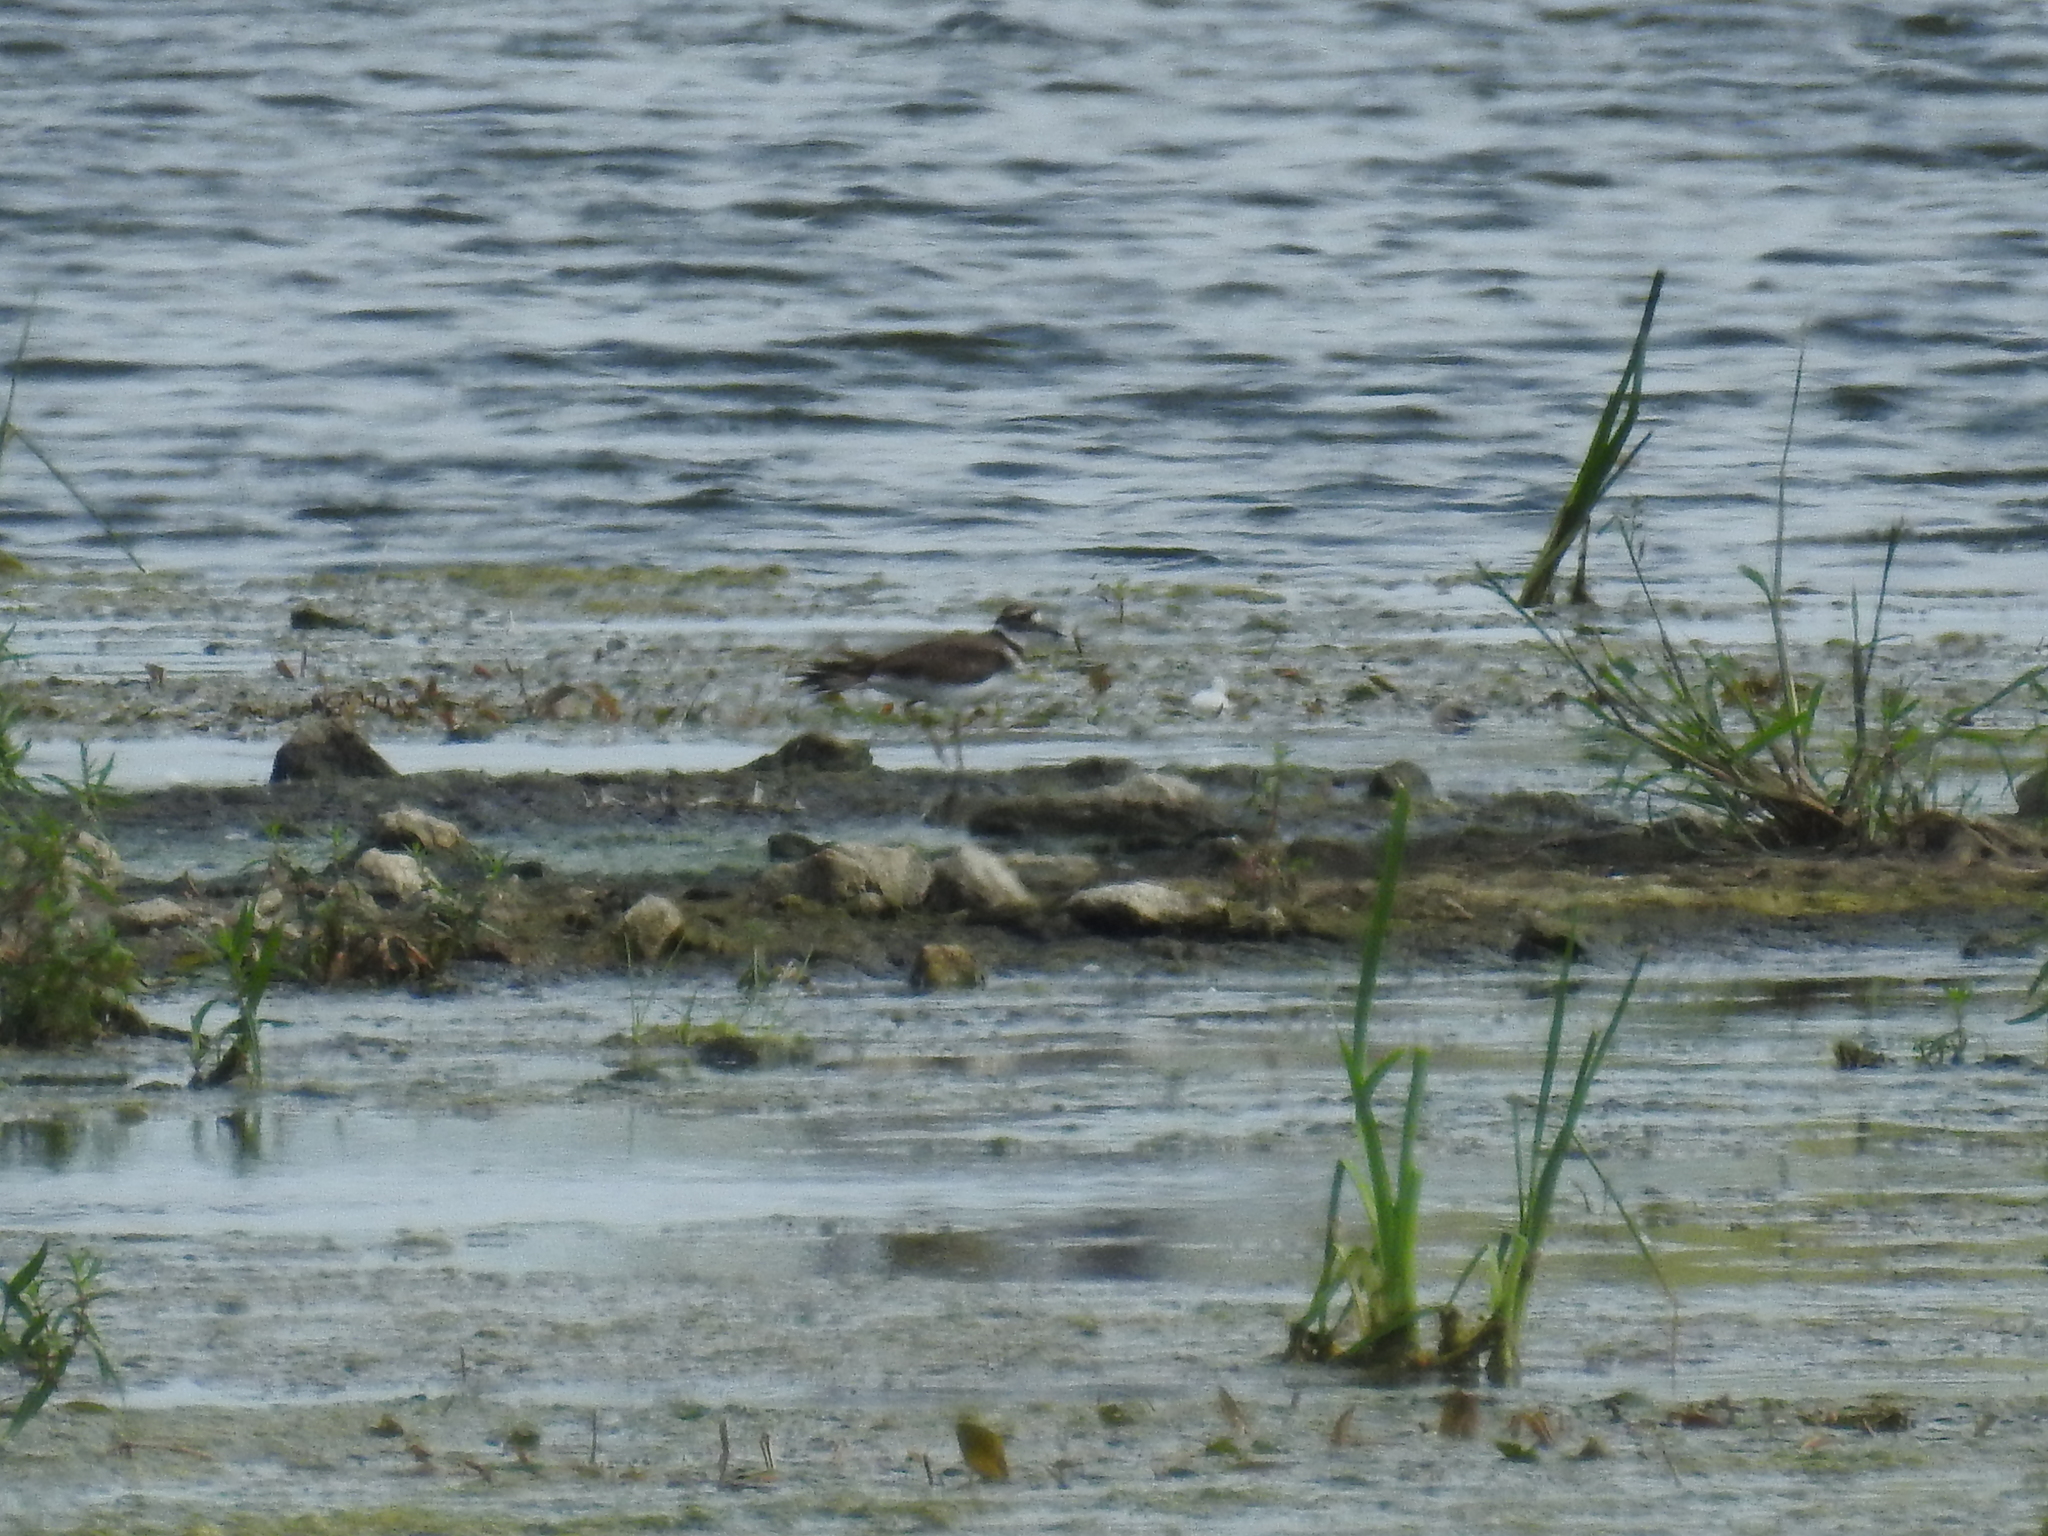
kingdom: Animalia
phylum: Chordata
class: Aves
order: Charadriiformes
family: Charadriidae
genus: Charadrius
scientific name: Charadrius vociferus
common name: Killdeer
